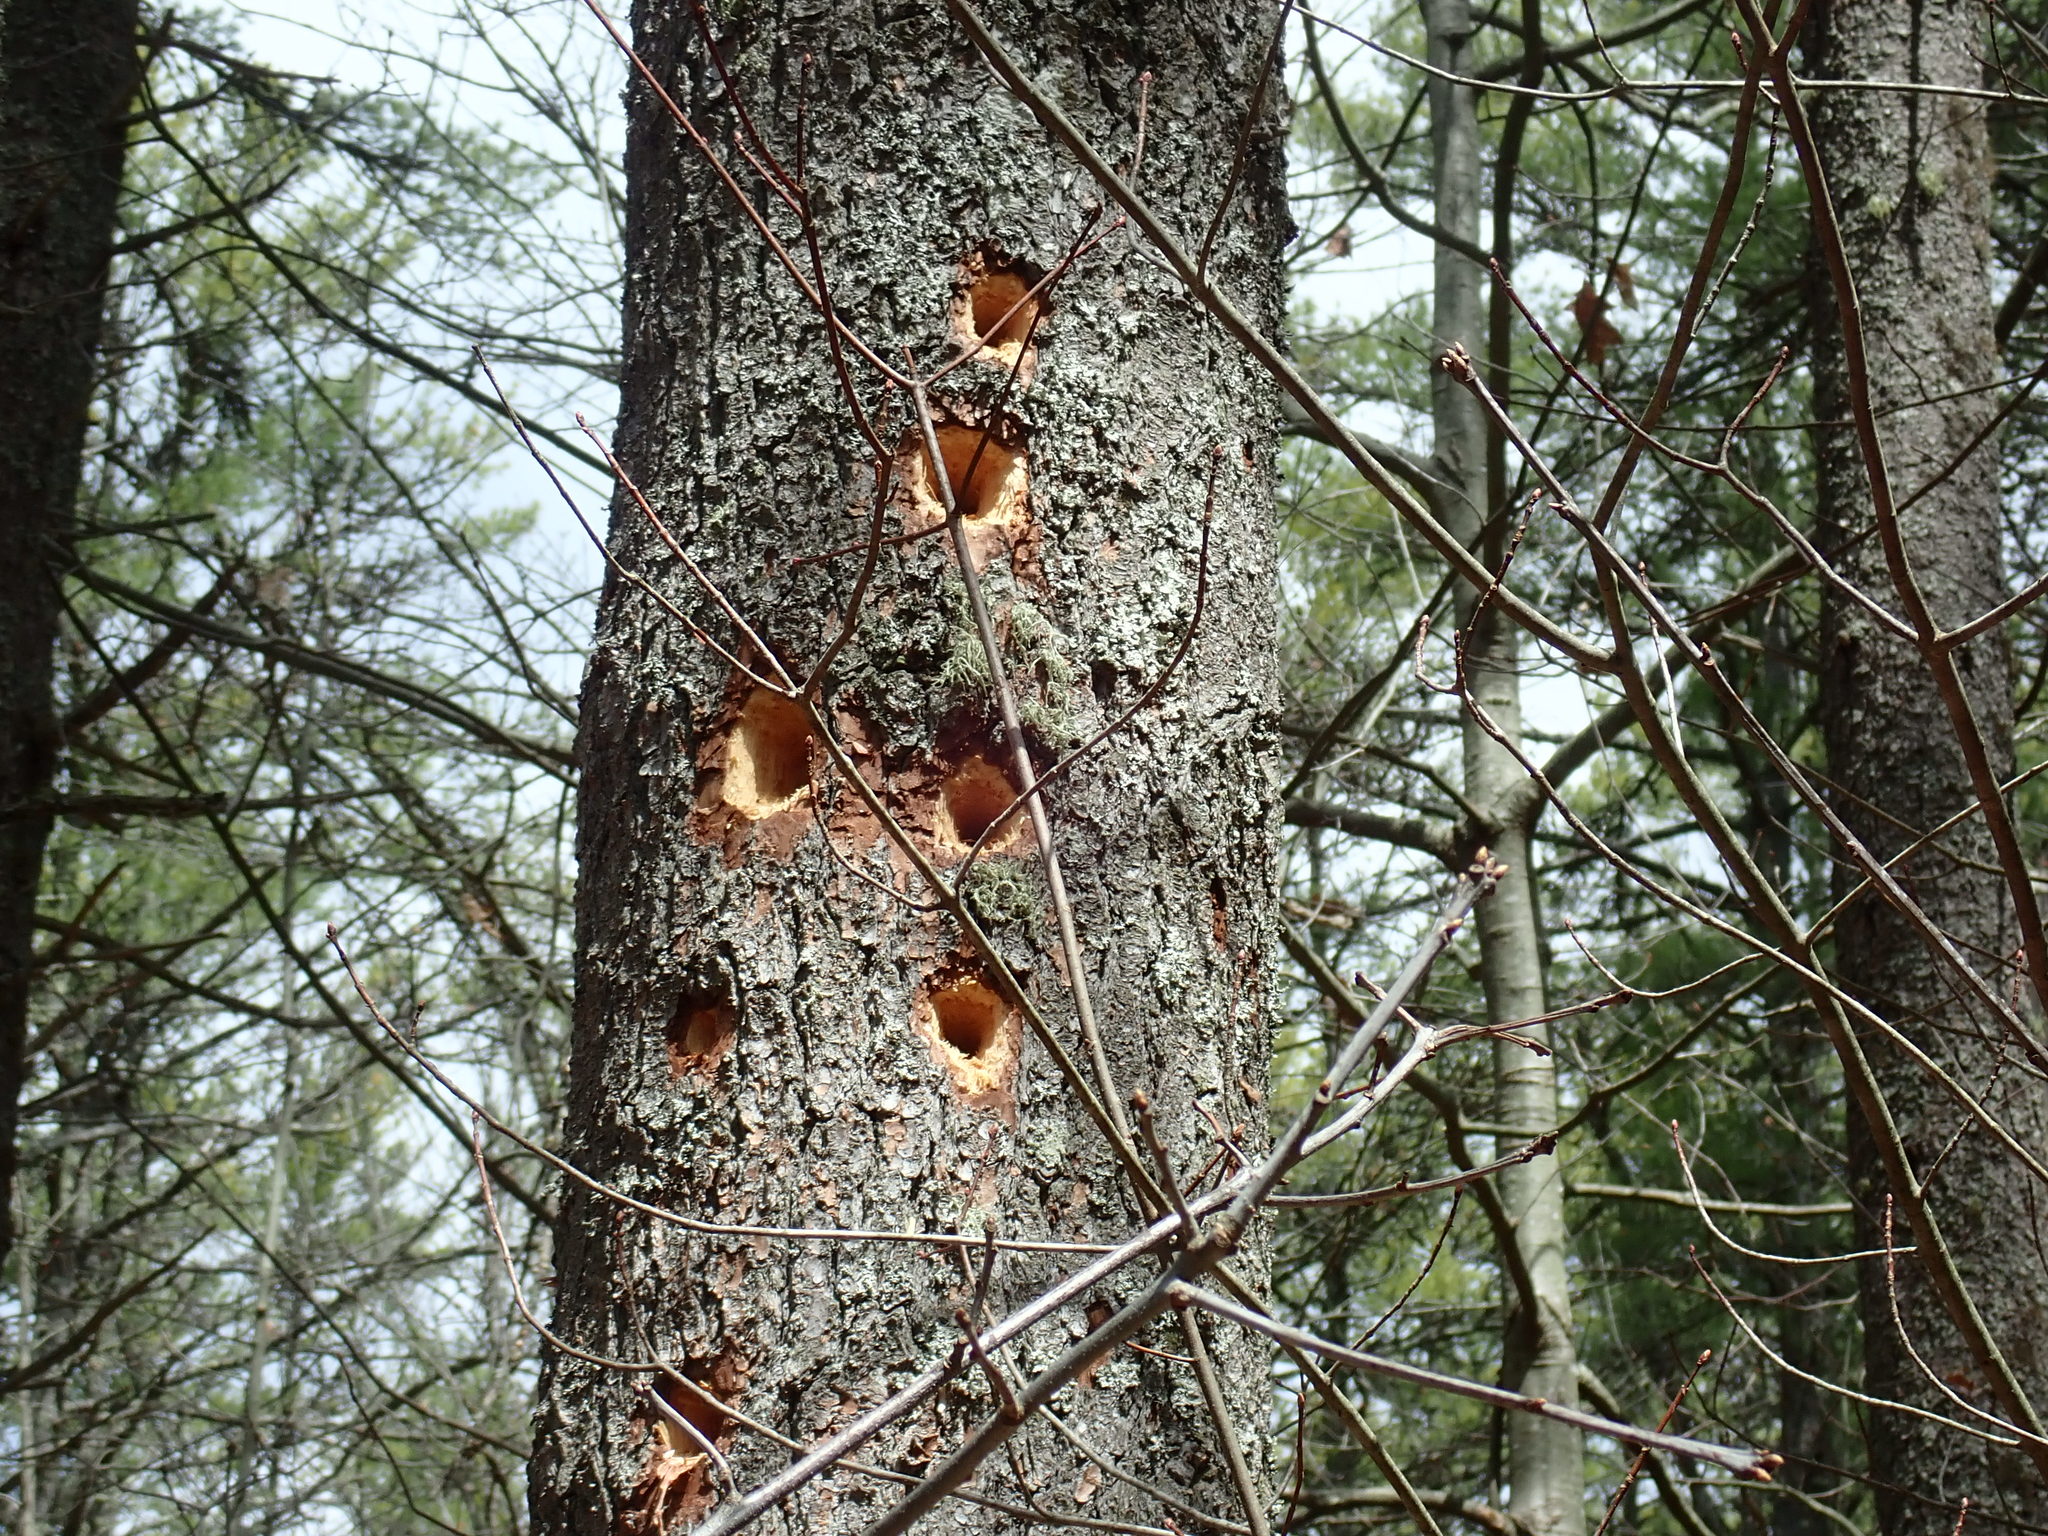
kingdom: Animalia
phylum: Chordata
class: Aves
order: Piciformes
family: Picidae
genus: Dryocopus
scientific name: Dryocopus pileatus
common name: Pileated woodpecker
